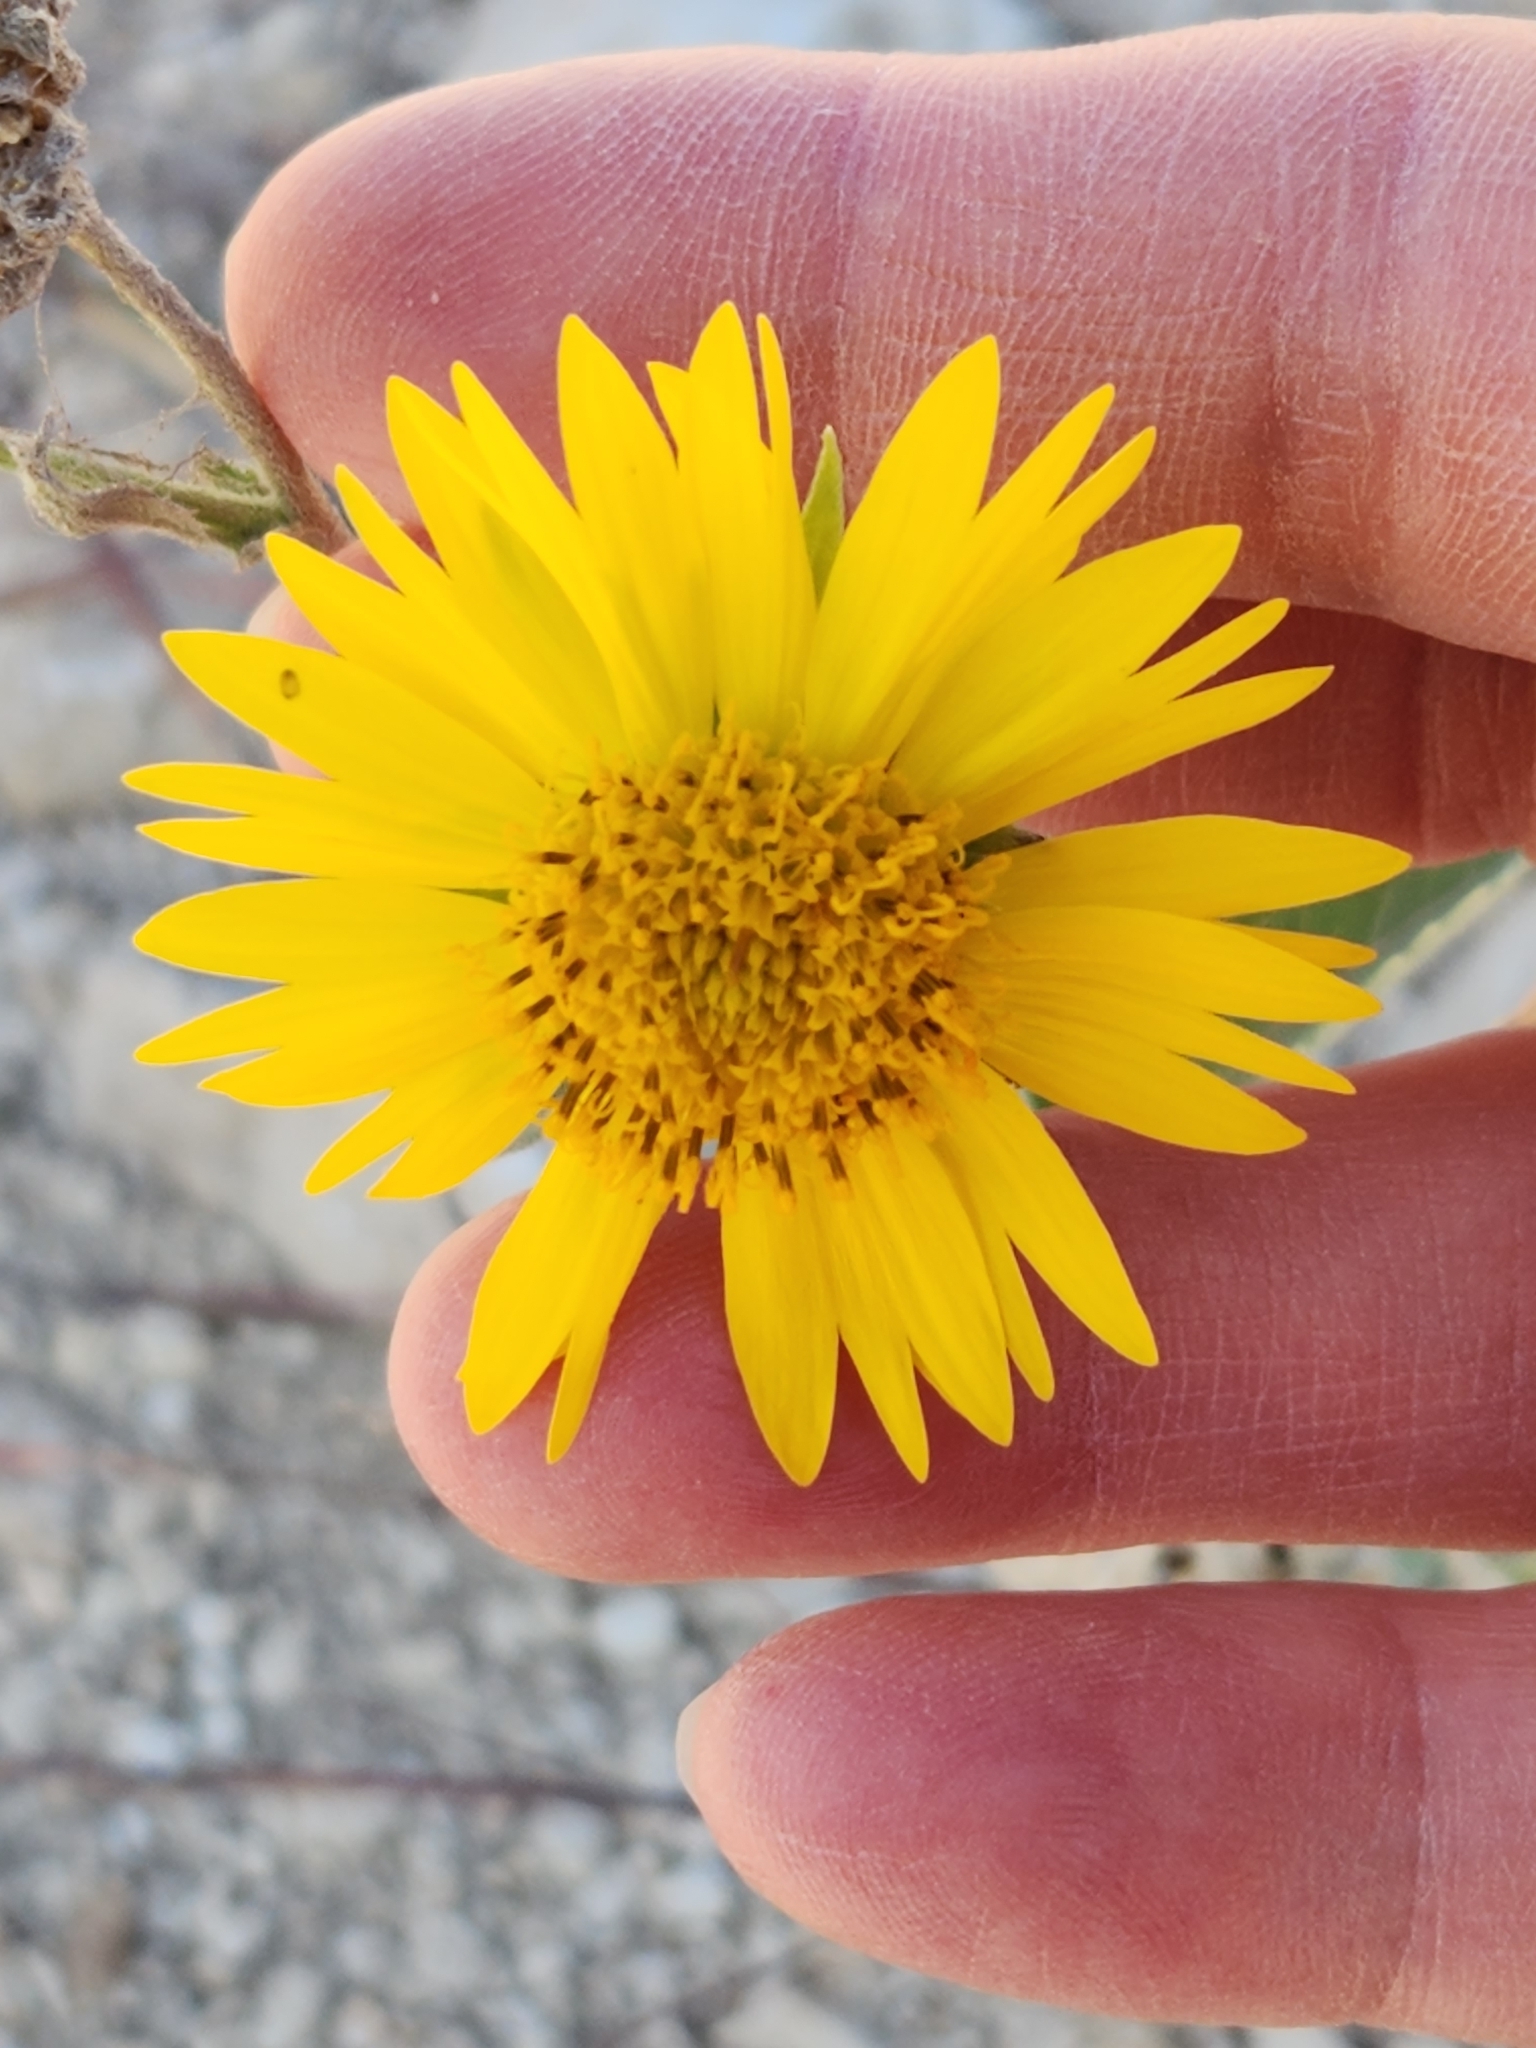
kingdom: Plantae
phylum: Tracheophyta
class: Magnoliopsida
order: Asterales
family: Asteraceae
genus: Verbesina
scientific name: Verbesina encelioides
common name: Golden crownbeard
